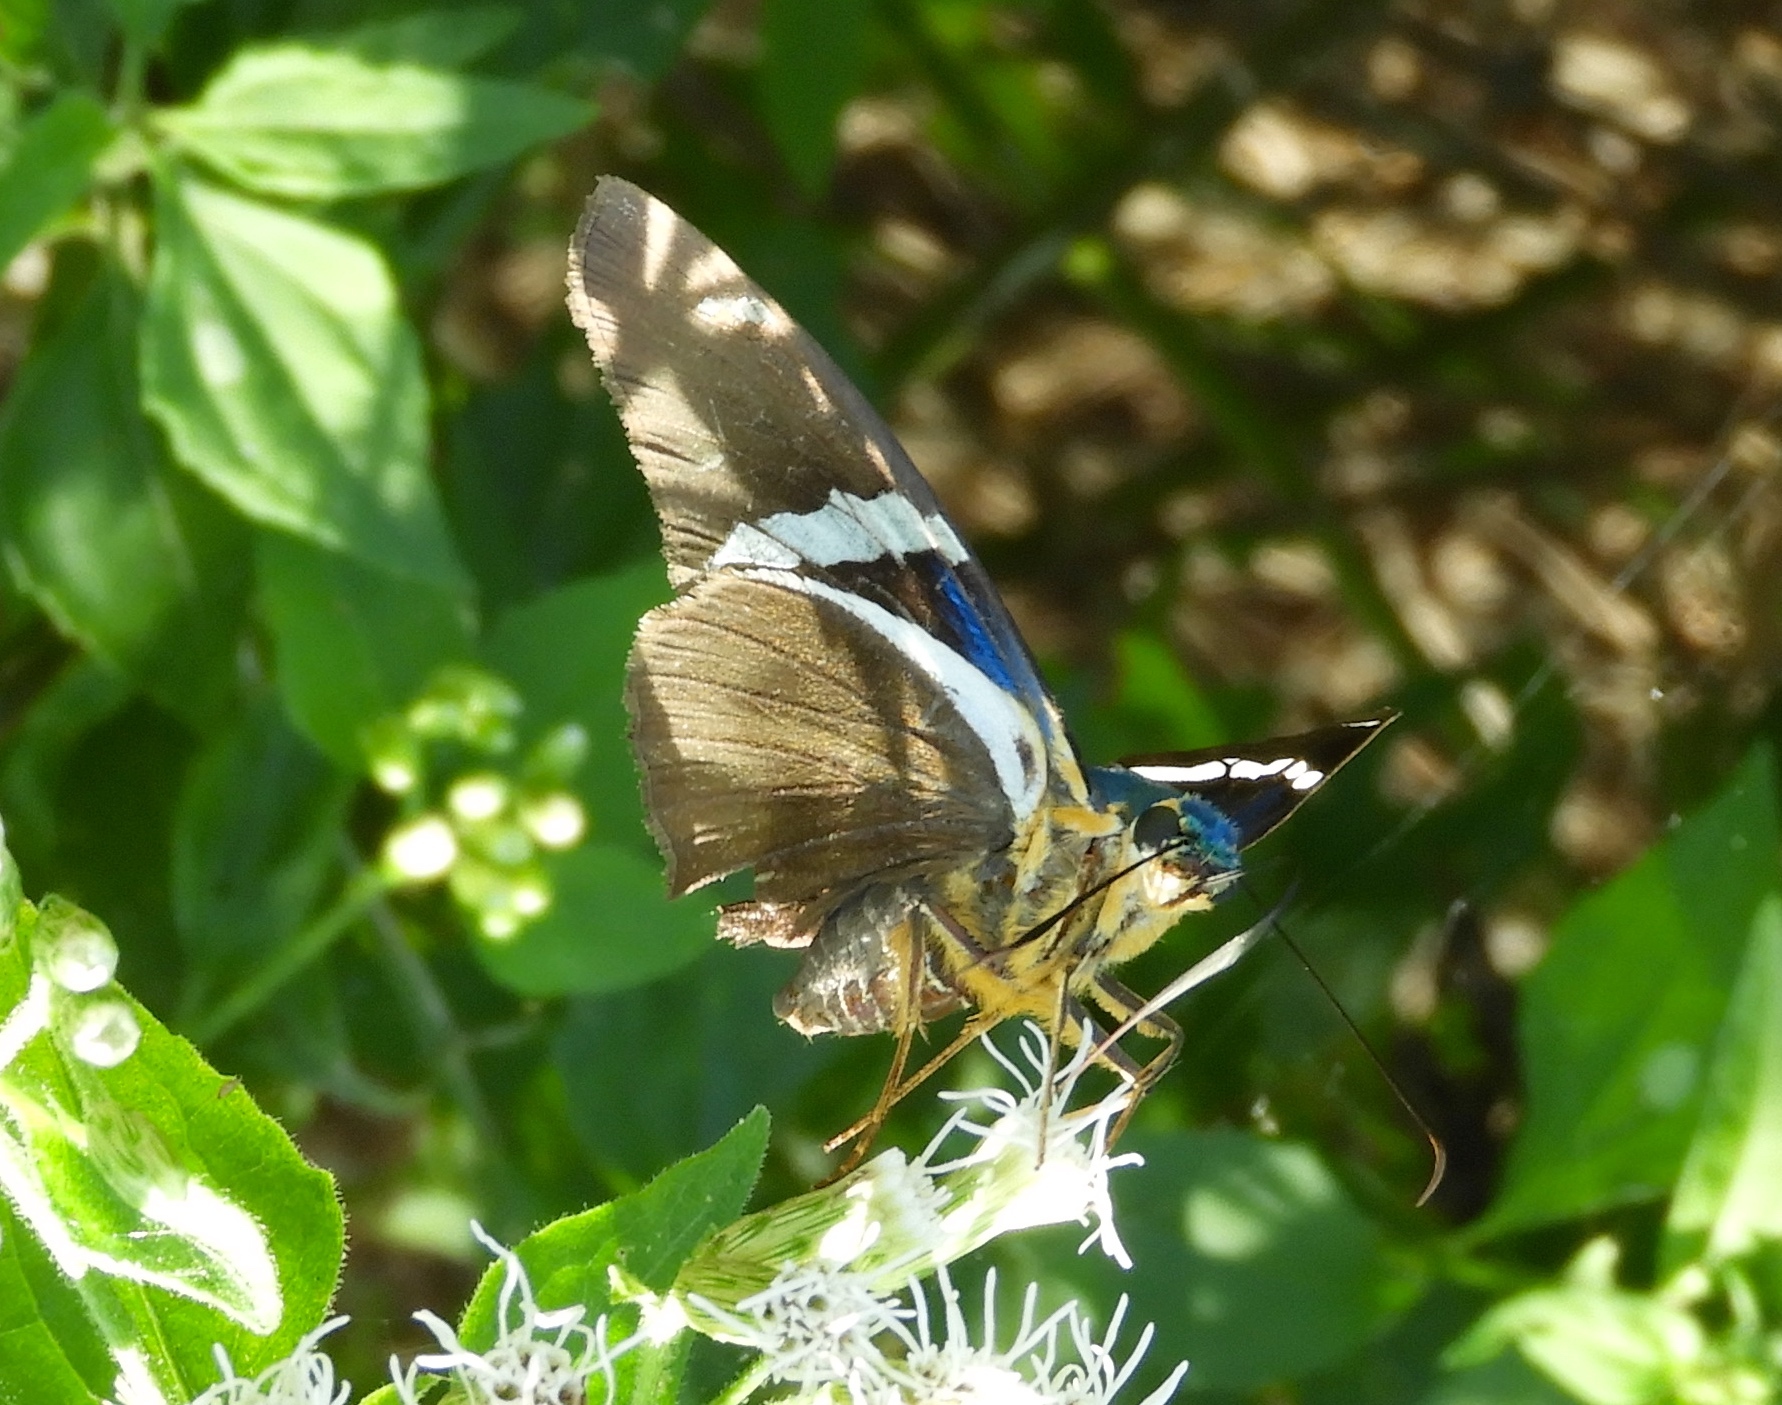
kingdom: Animalia
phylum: Arthropoda
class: Insecta
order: Lepidoptera
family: Hesperiidae
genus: Astraptes
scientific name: Astraptes fulgerator
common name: Two-barred flasher
